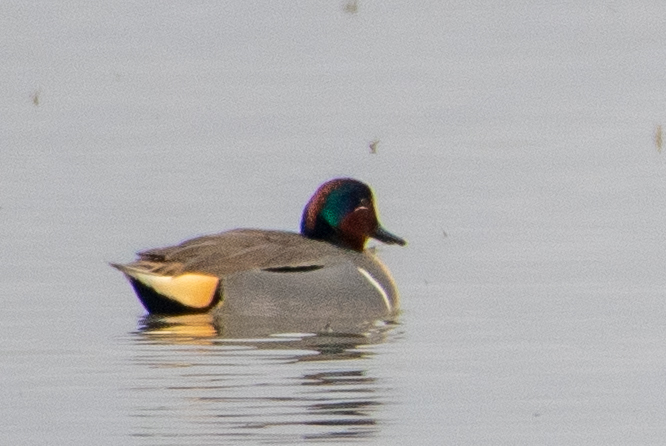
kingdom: Animalia
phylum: Chordata
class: Aves
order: Anseriformes
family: Anatidae
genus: Anas
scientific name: Anas crecca
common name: Eurasian teal
